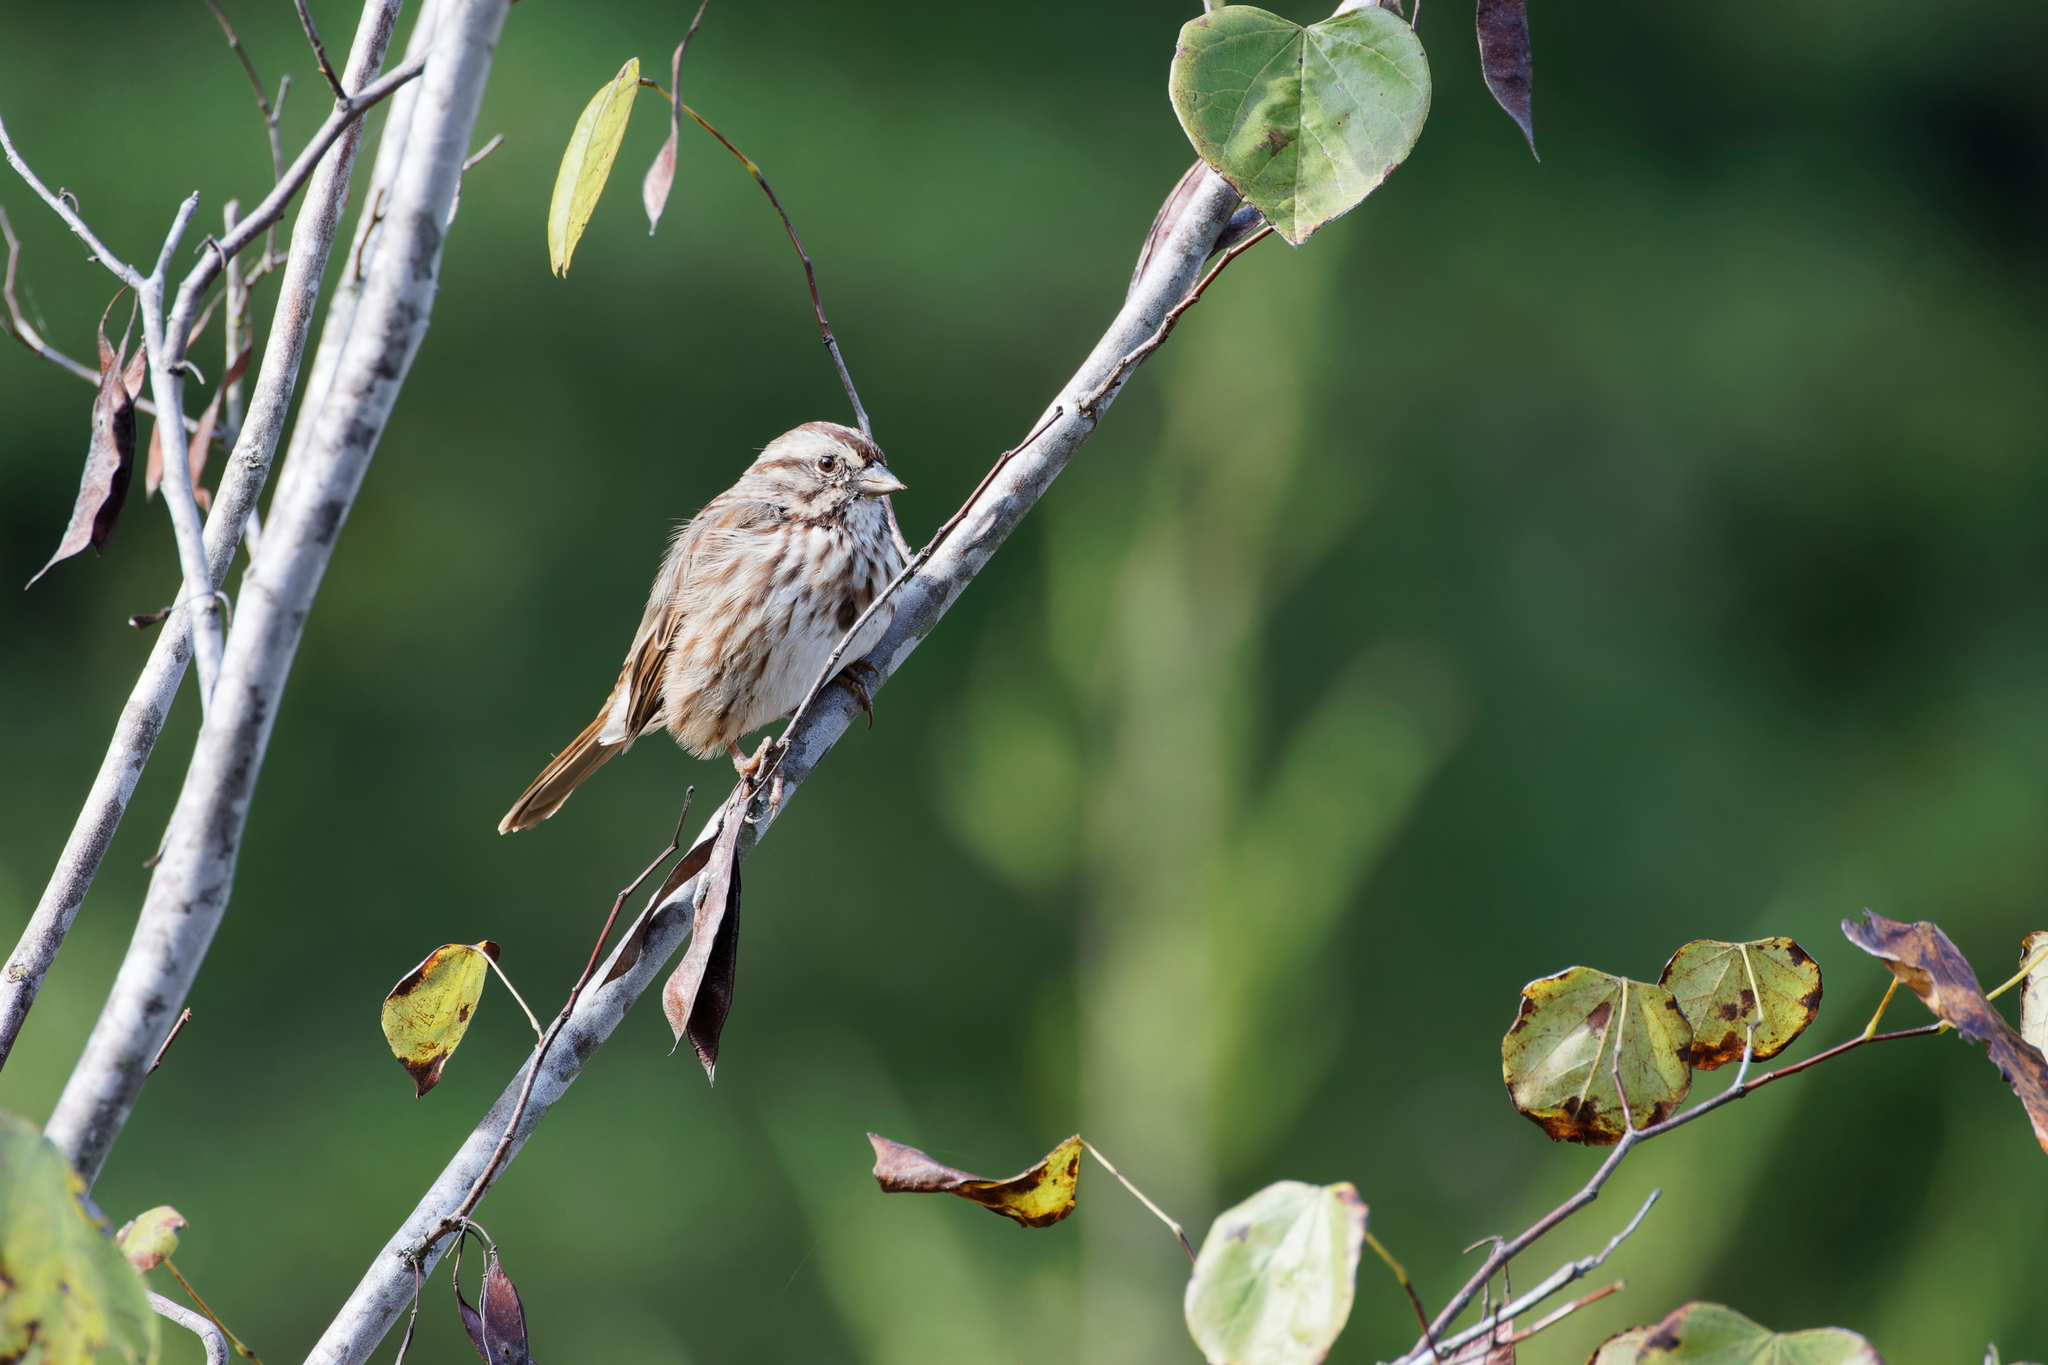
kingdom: Animalia
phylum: Chordata
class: Aves
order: Passeriformes
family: Passerellidae
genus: Melospiza
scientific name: Melospiza melodia
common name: Song sparrow
